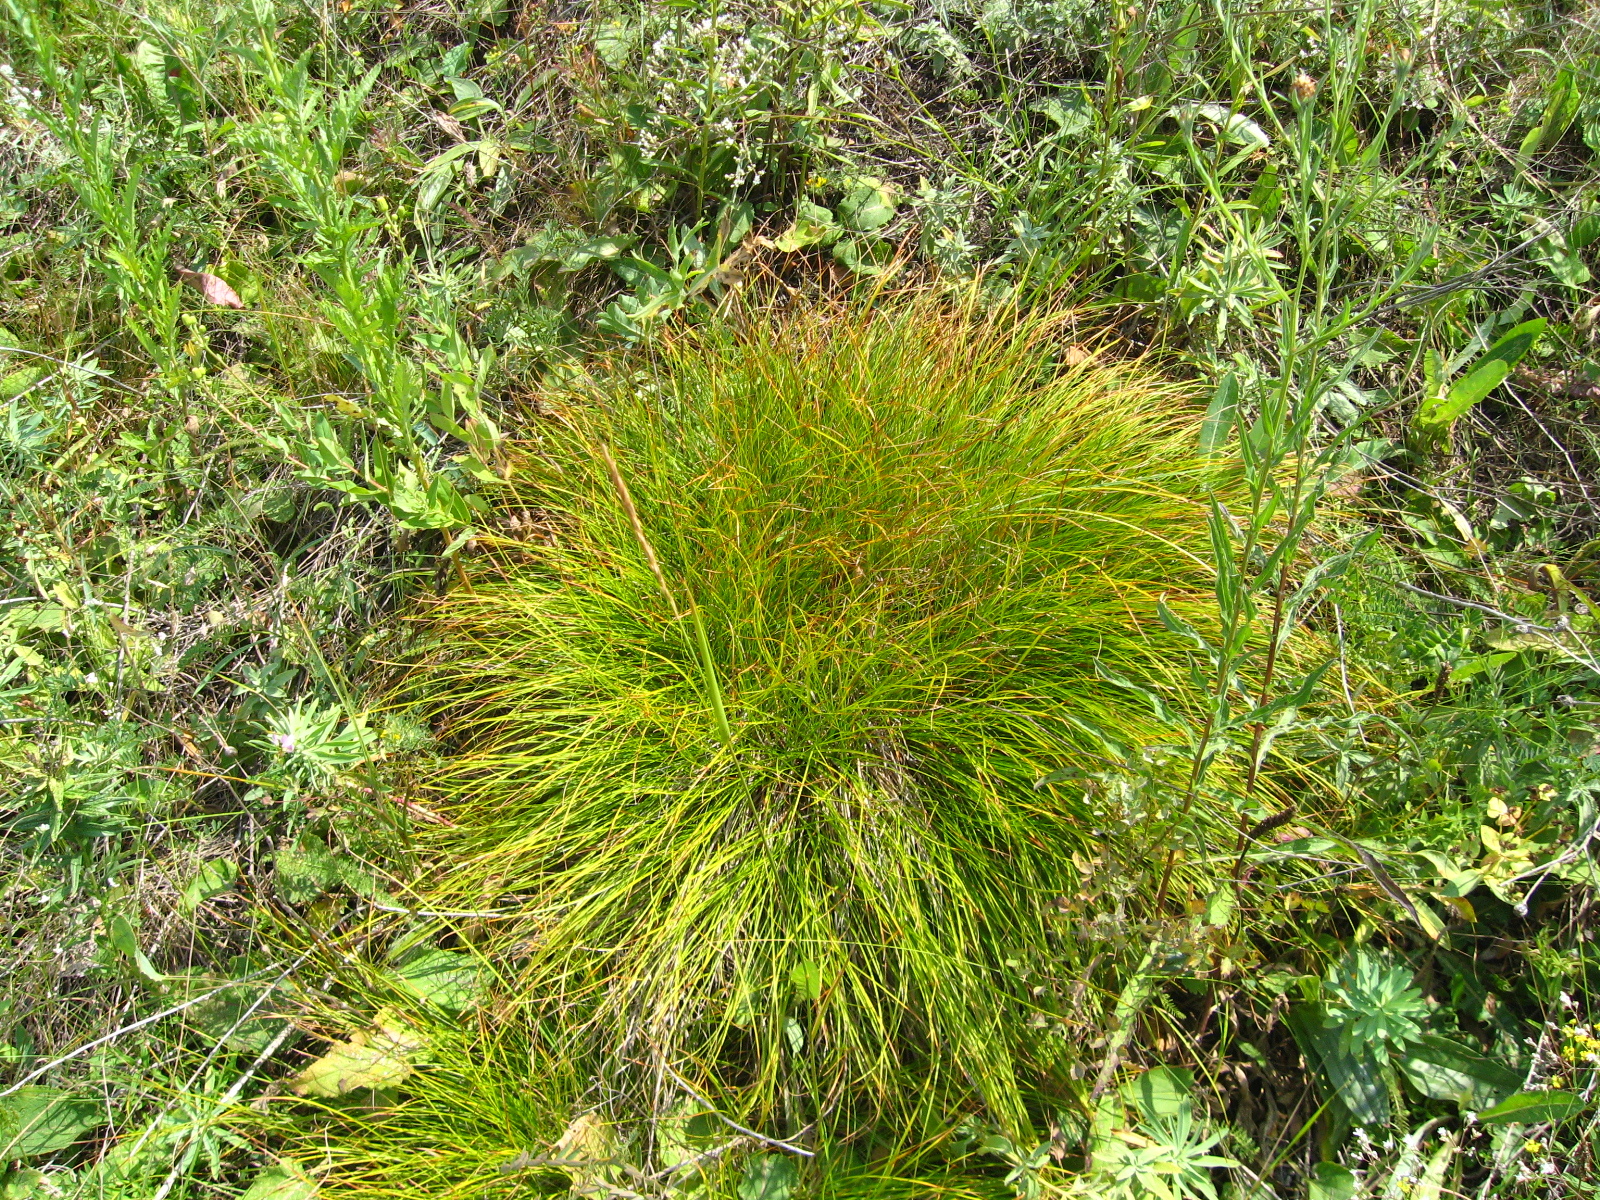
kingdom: Plantae
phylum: Tracheophyta
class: Liliopsida
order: Poales
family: Cyperaceae
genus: Carex
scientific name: Carex humilis
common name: Dwarf sedge
